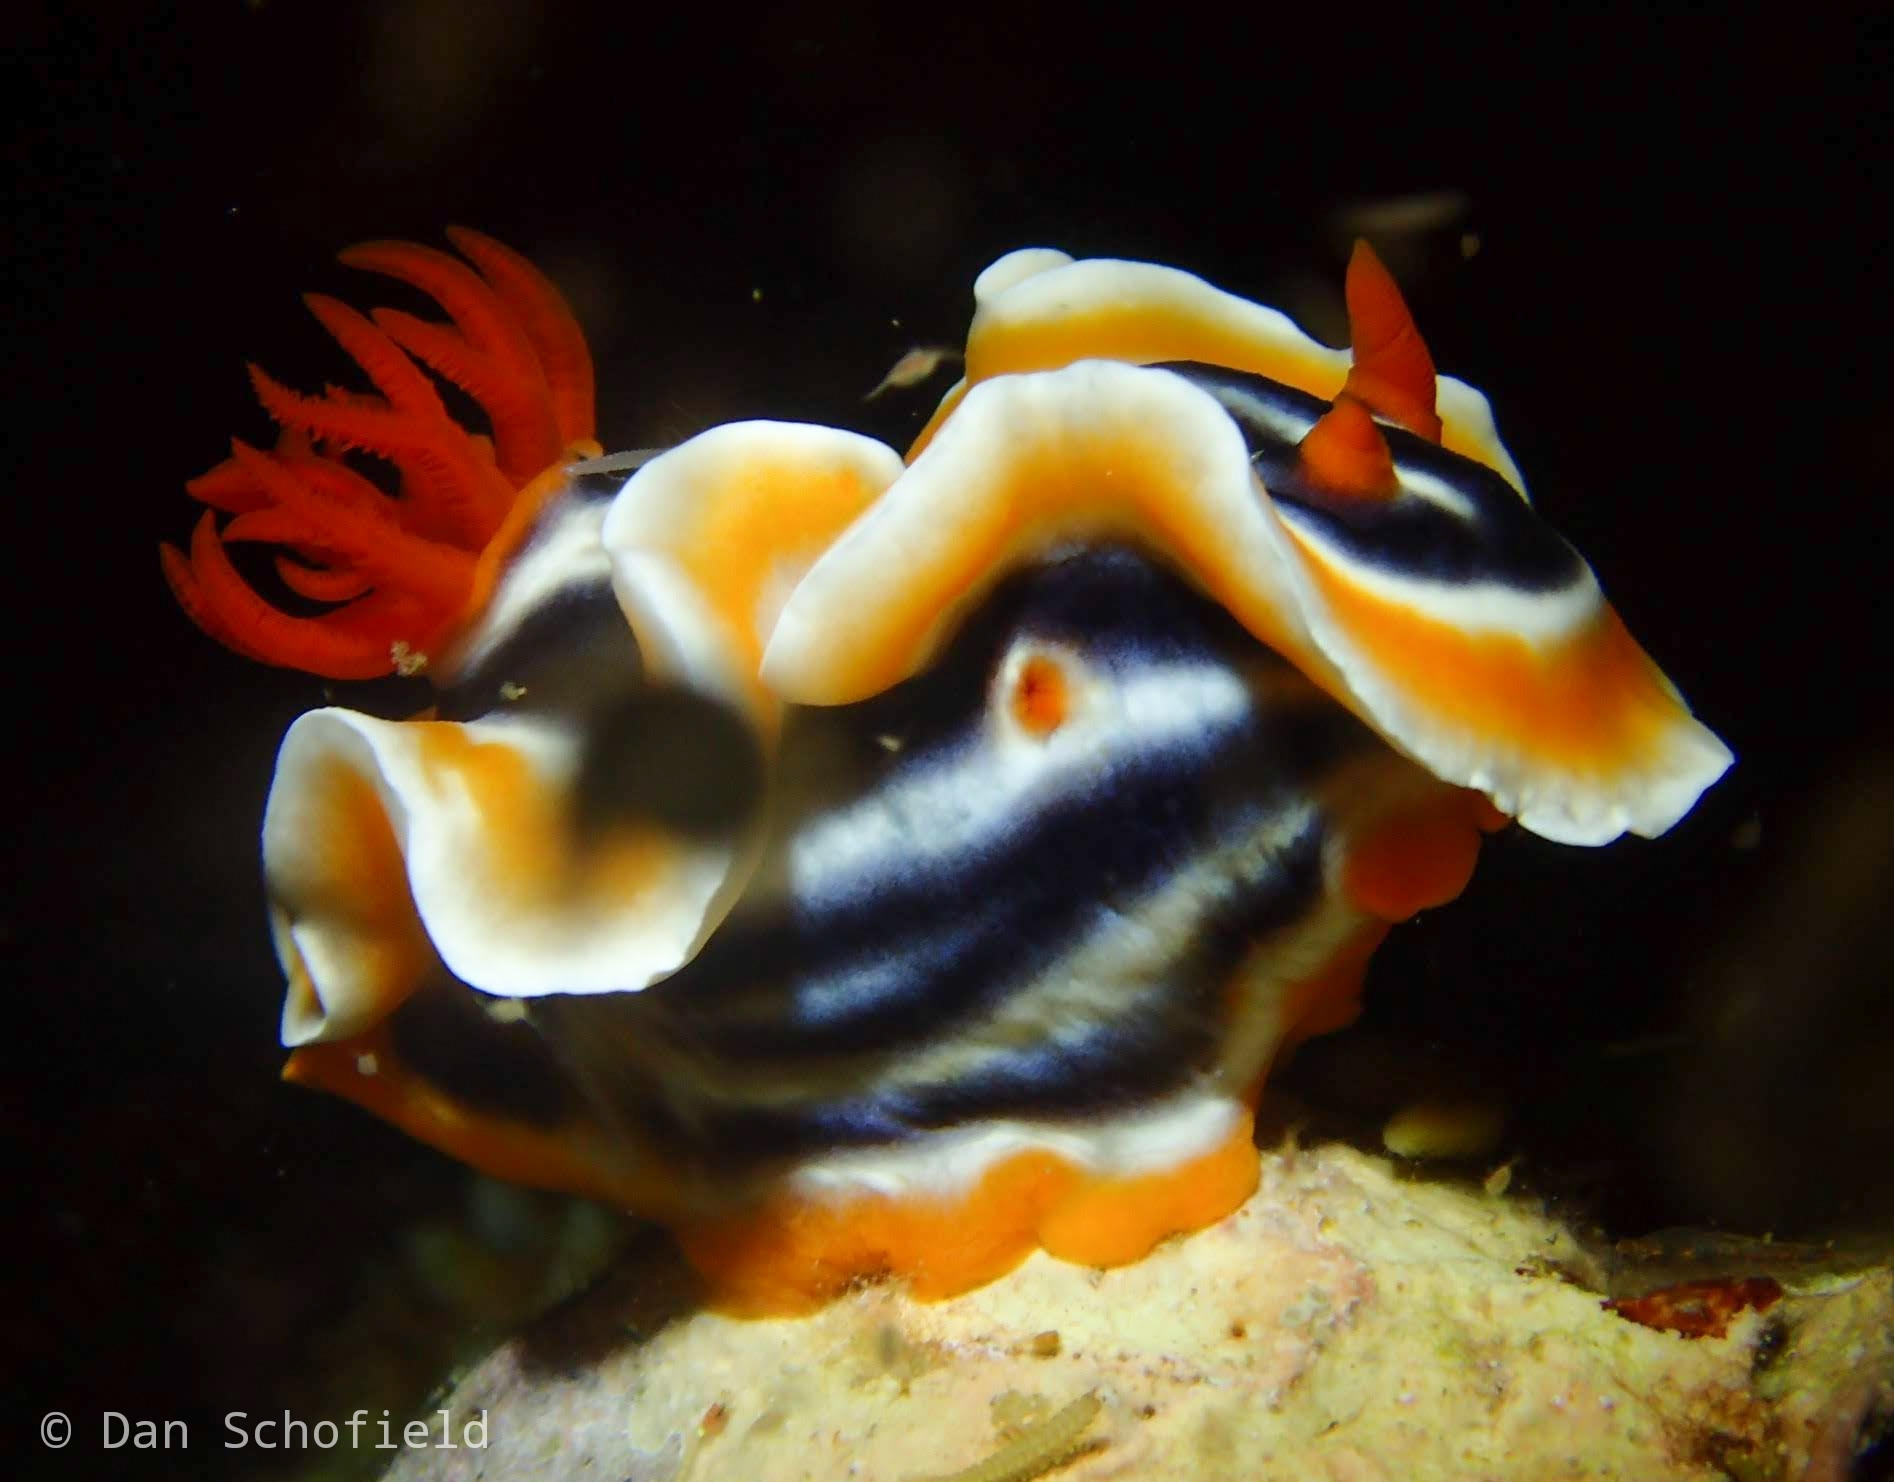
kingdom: Animalia
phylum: Mollusca
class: Gastropoda
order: Nudibranchia
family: Chromodorididae
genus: Chromodoris
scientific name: Chromodoris magnifica
